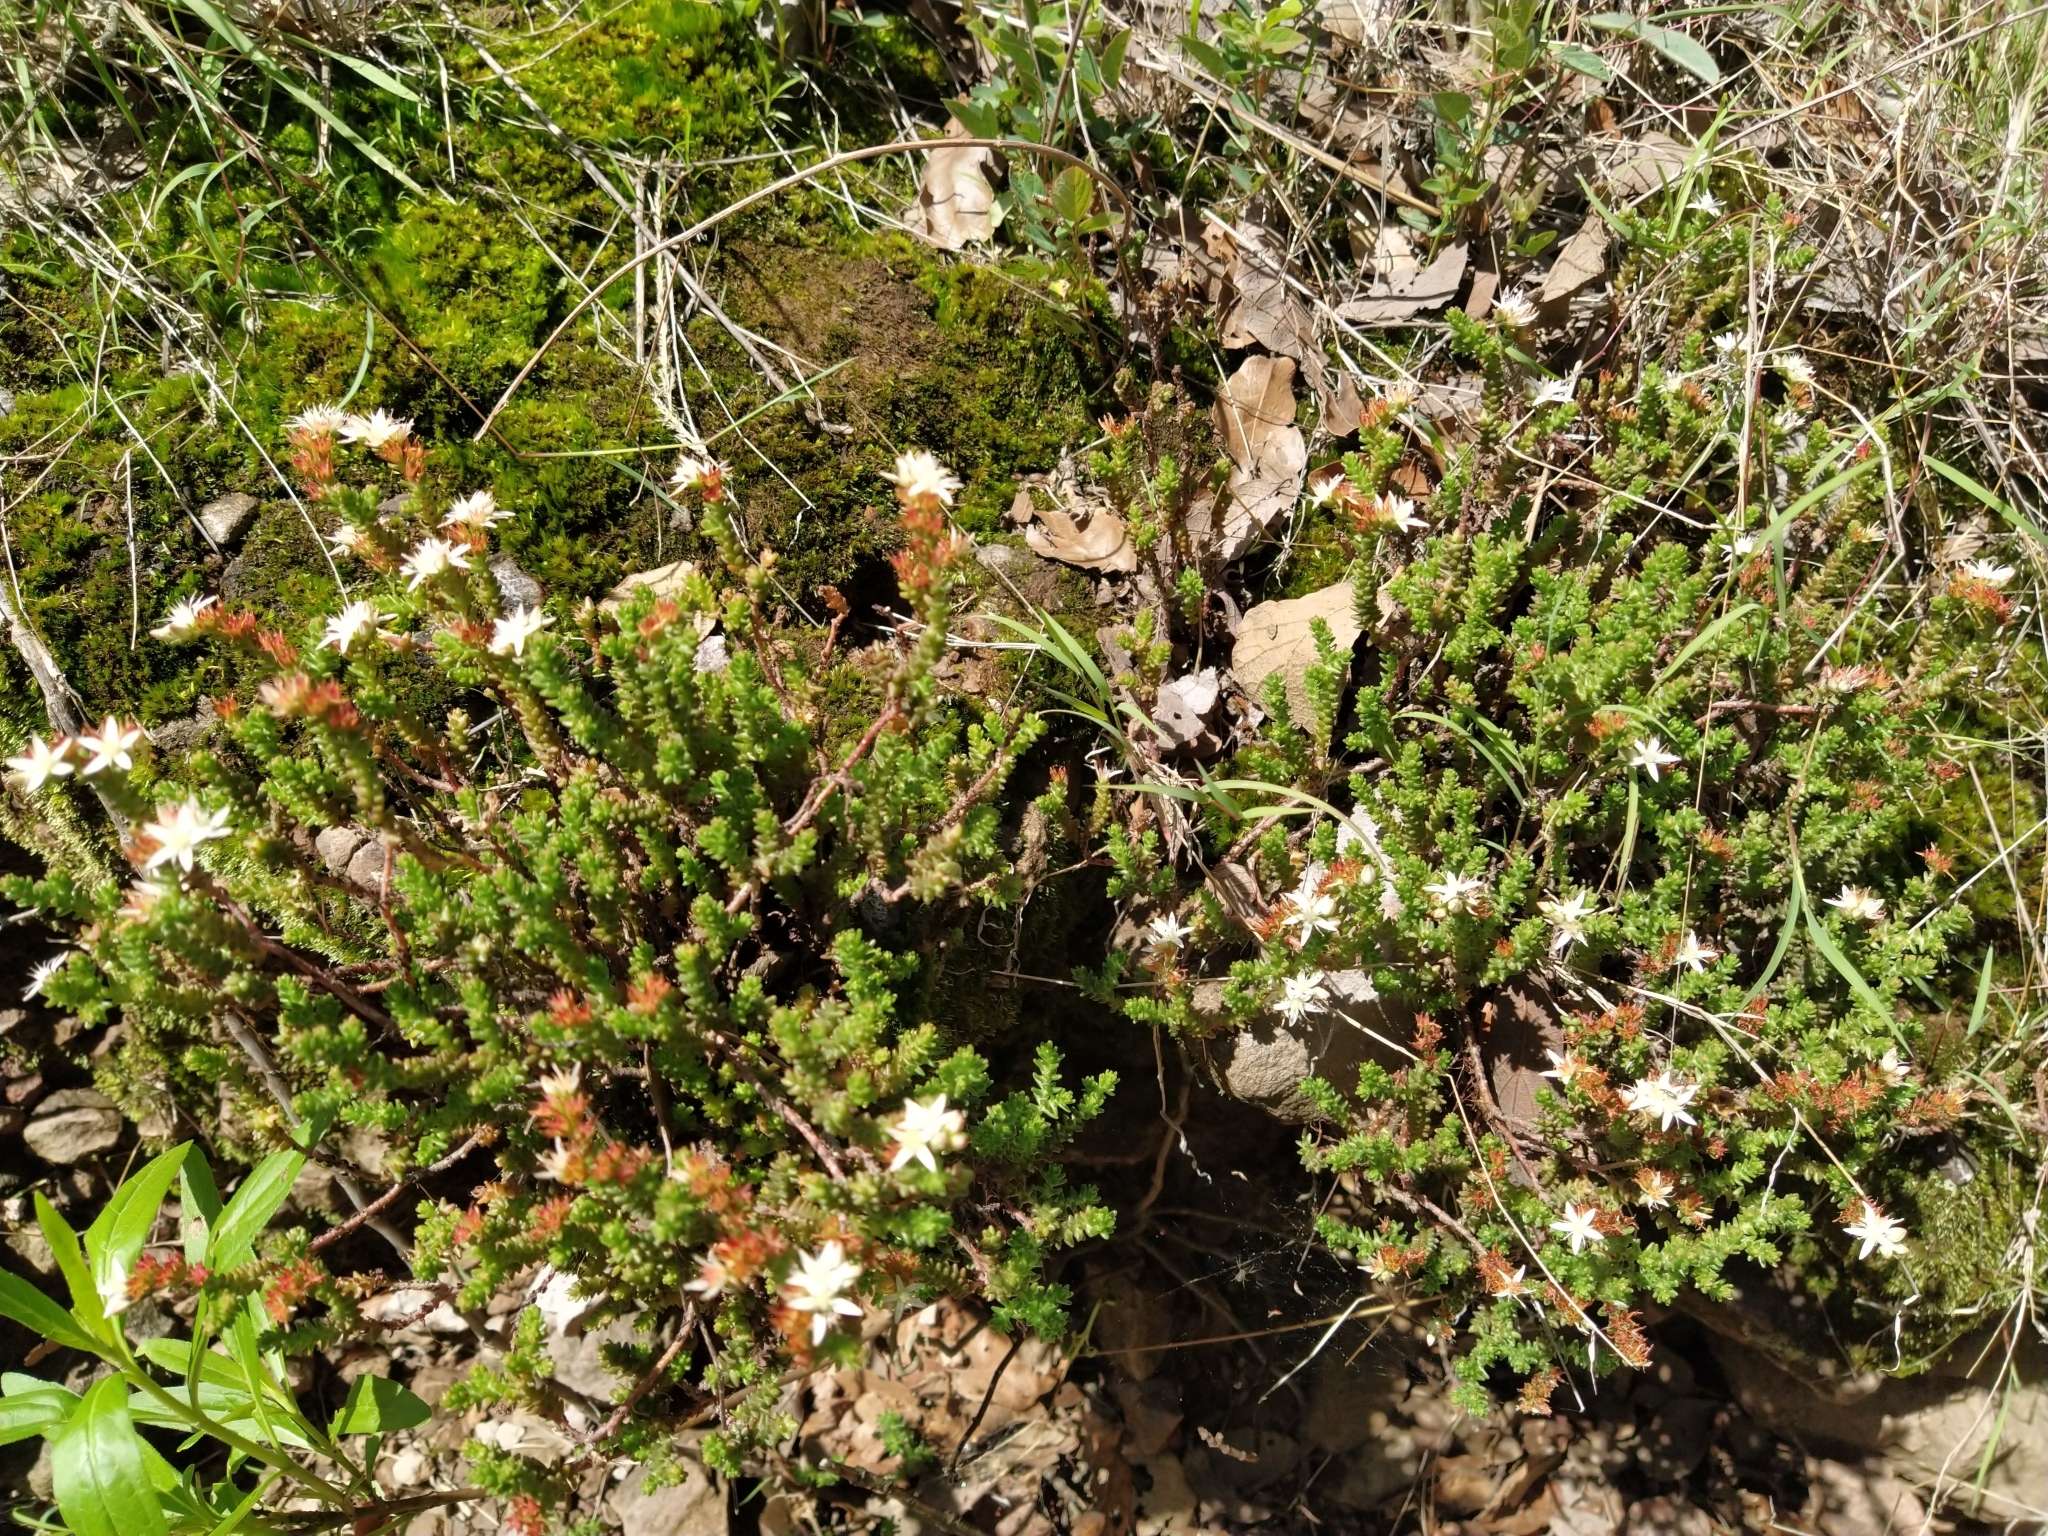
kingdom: Plantae
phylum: Tracheophyta
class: Magnoliopsida
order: Saxifragales
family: Crassulaceae
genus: Sedum
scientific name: Sedum moranense
